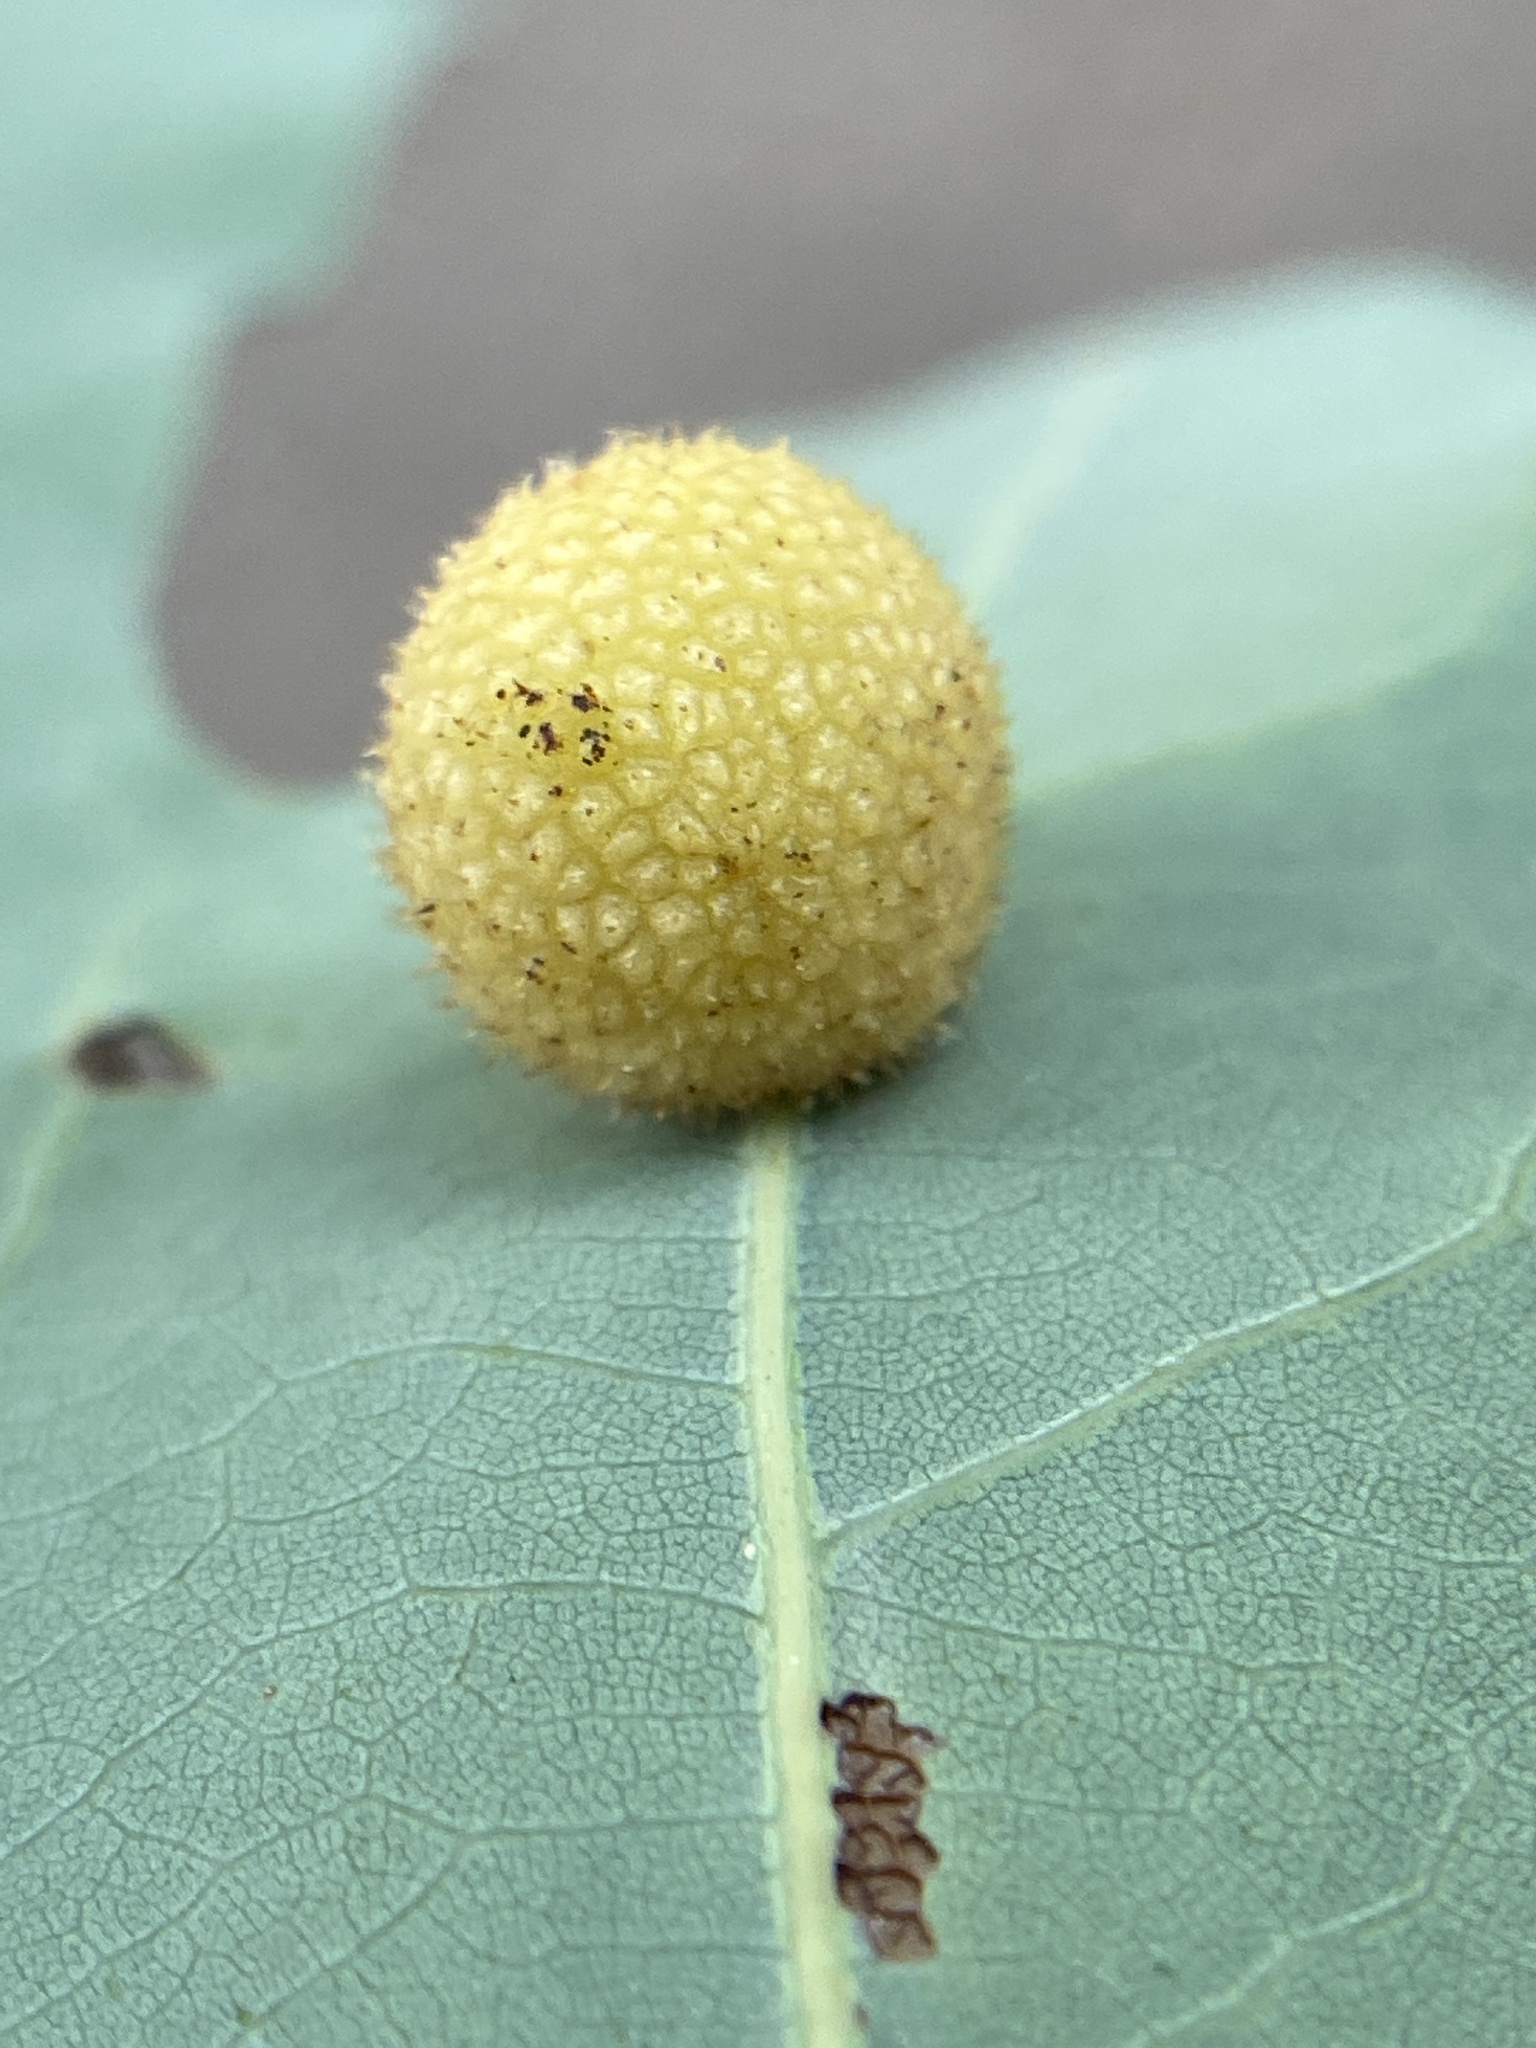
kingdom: Animalia
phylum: Arthropoda
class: Insecta
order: Hymenoptera
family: Cynipidae
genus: Acraspis
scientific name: Acraspis
